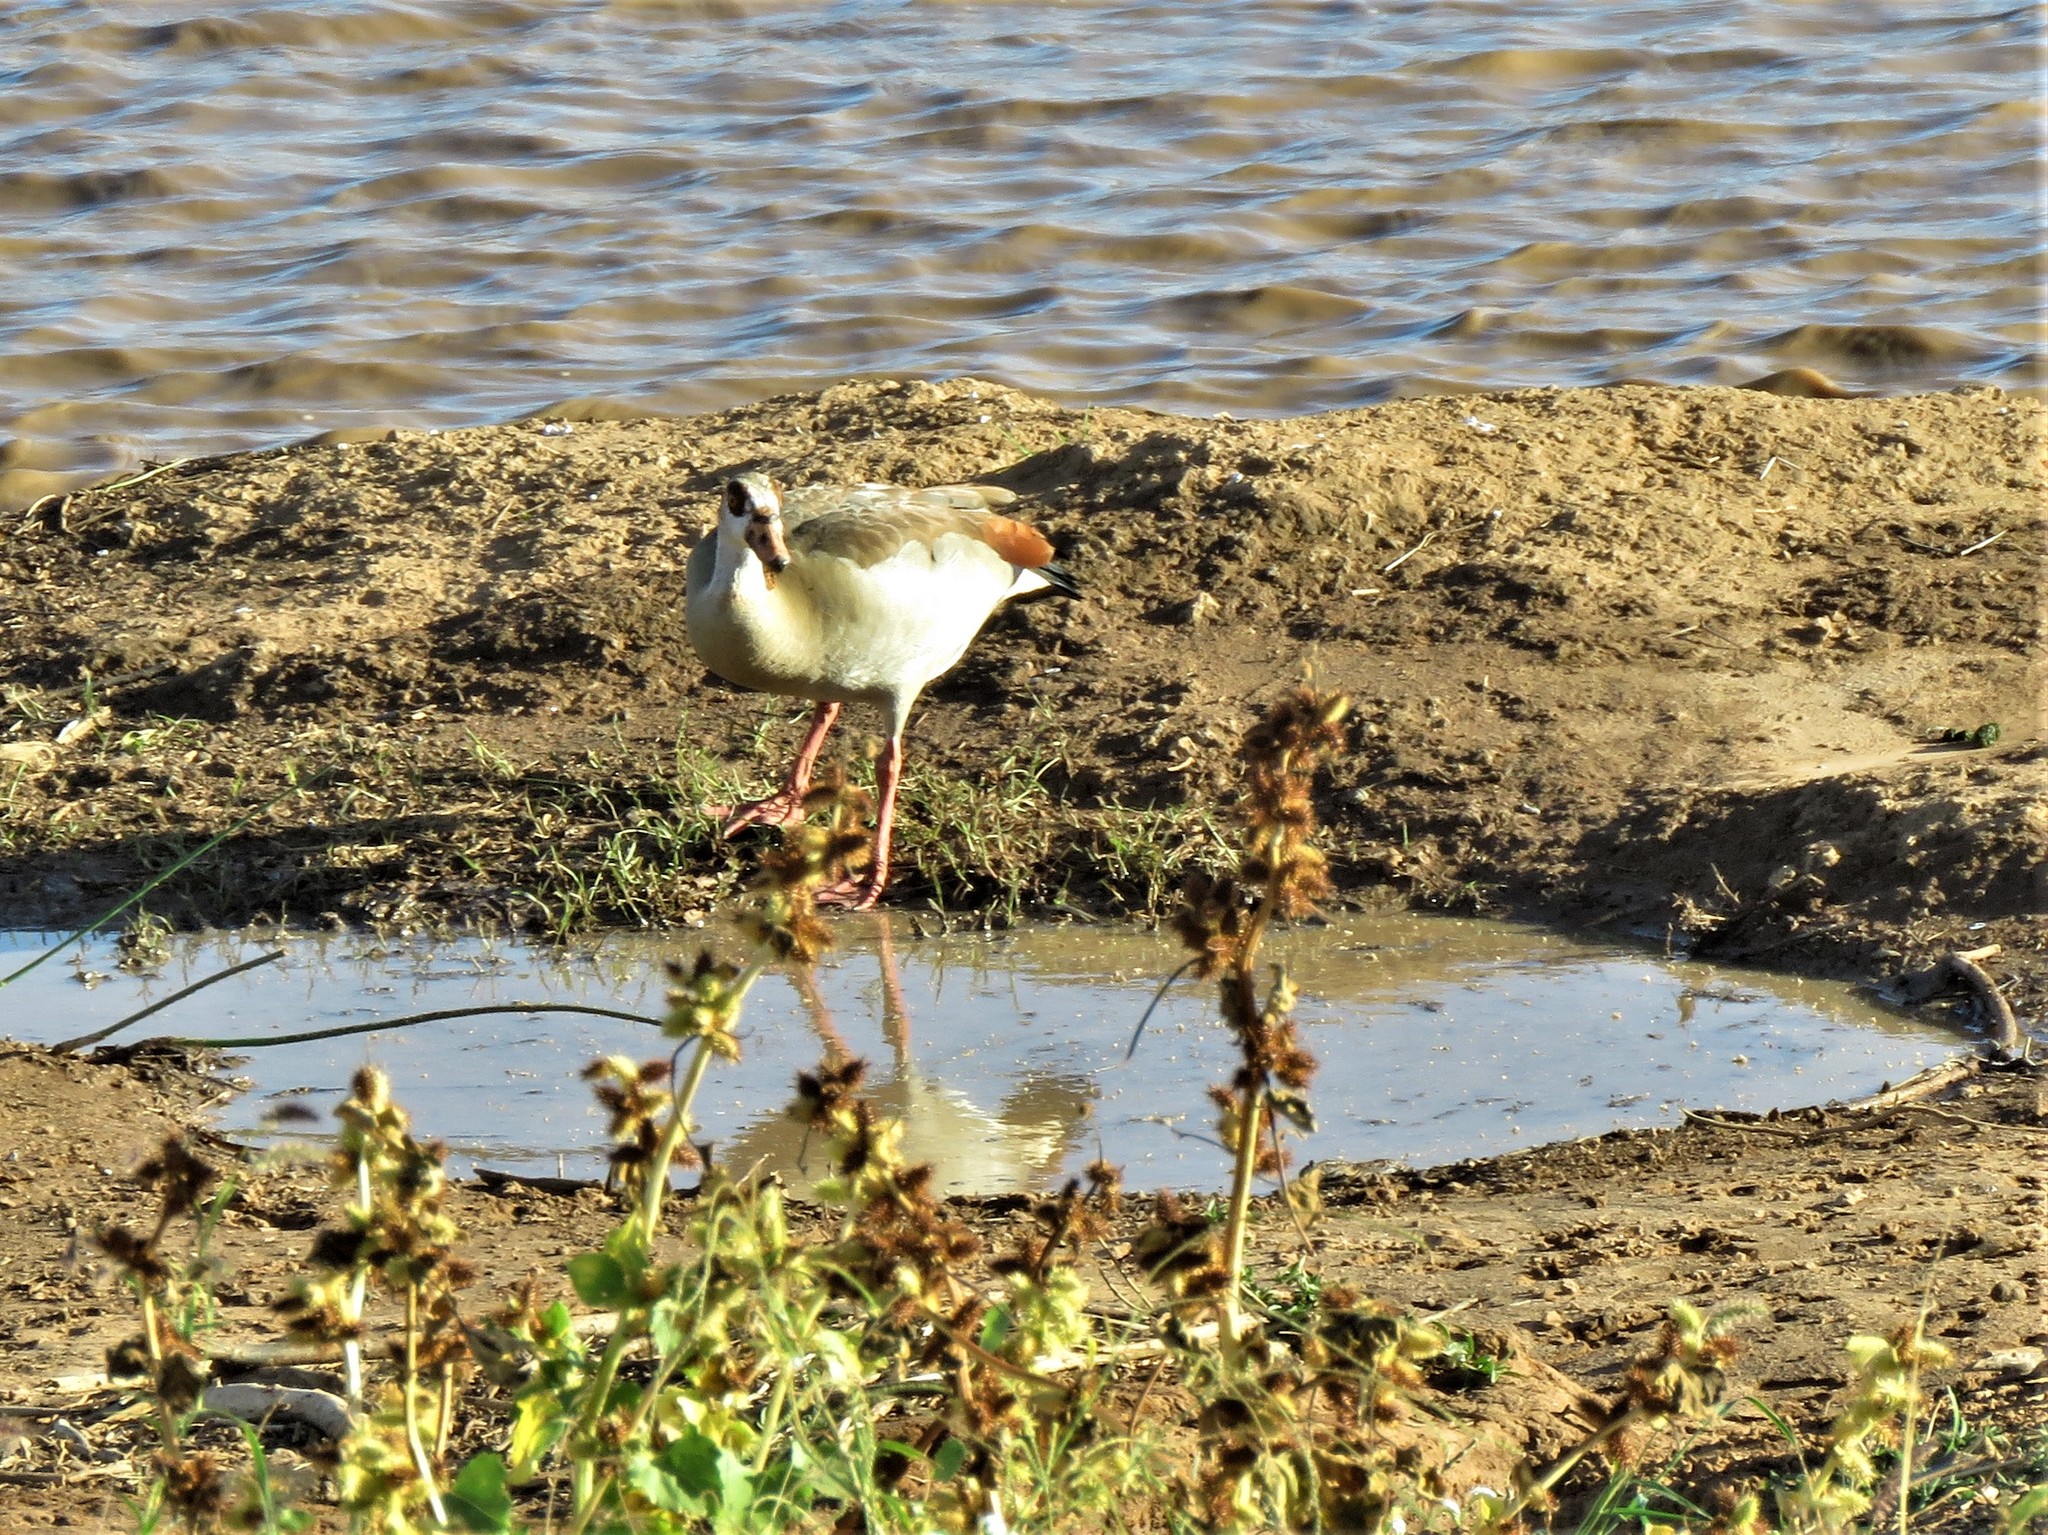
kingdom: Animalia
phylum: Chordata
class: Aves
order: Anseriformes
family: Anatidae
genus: Alopochen
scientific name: Alopochen aegyptiaca
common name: Egyptian goose
